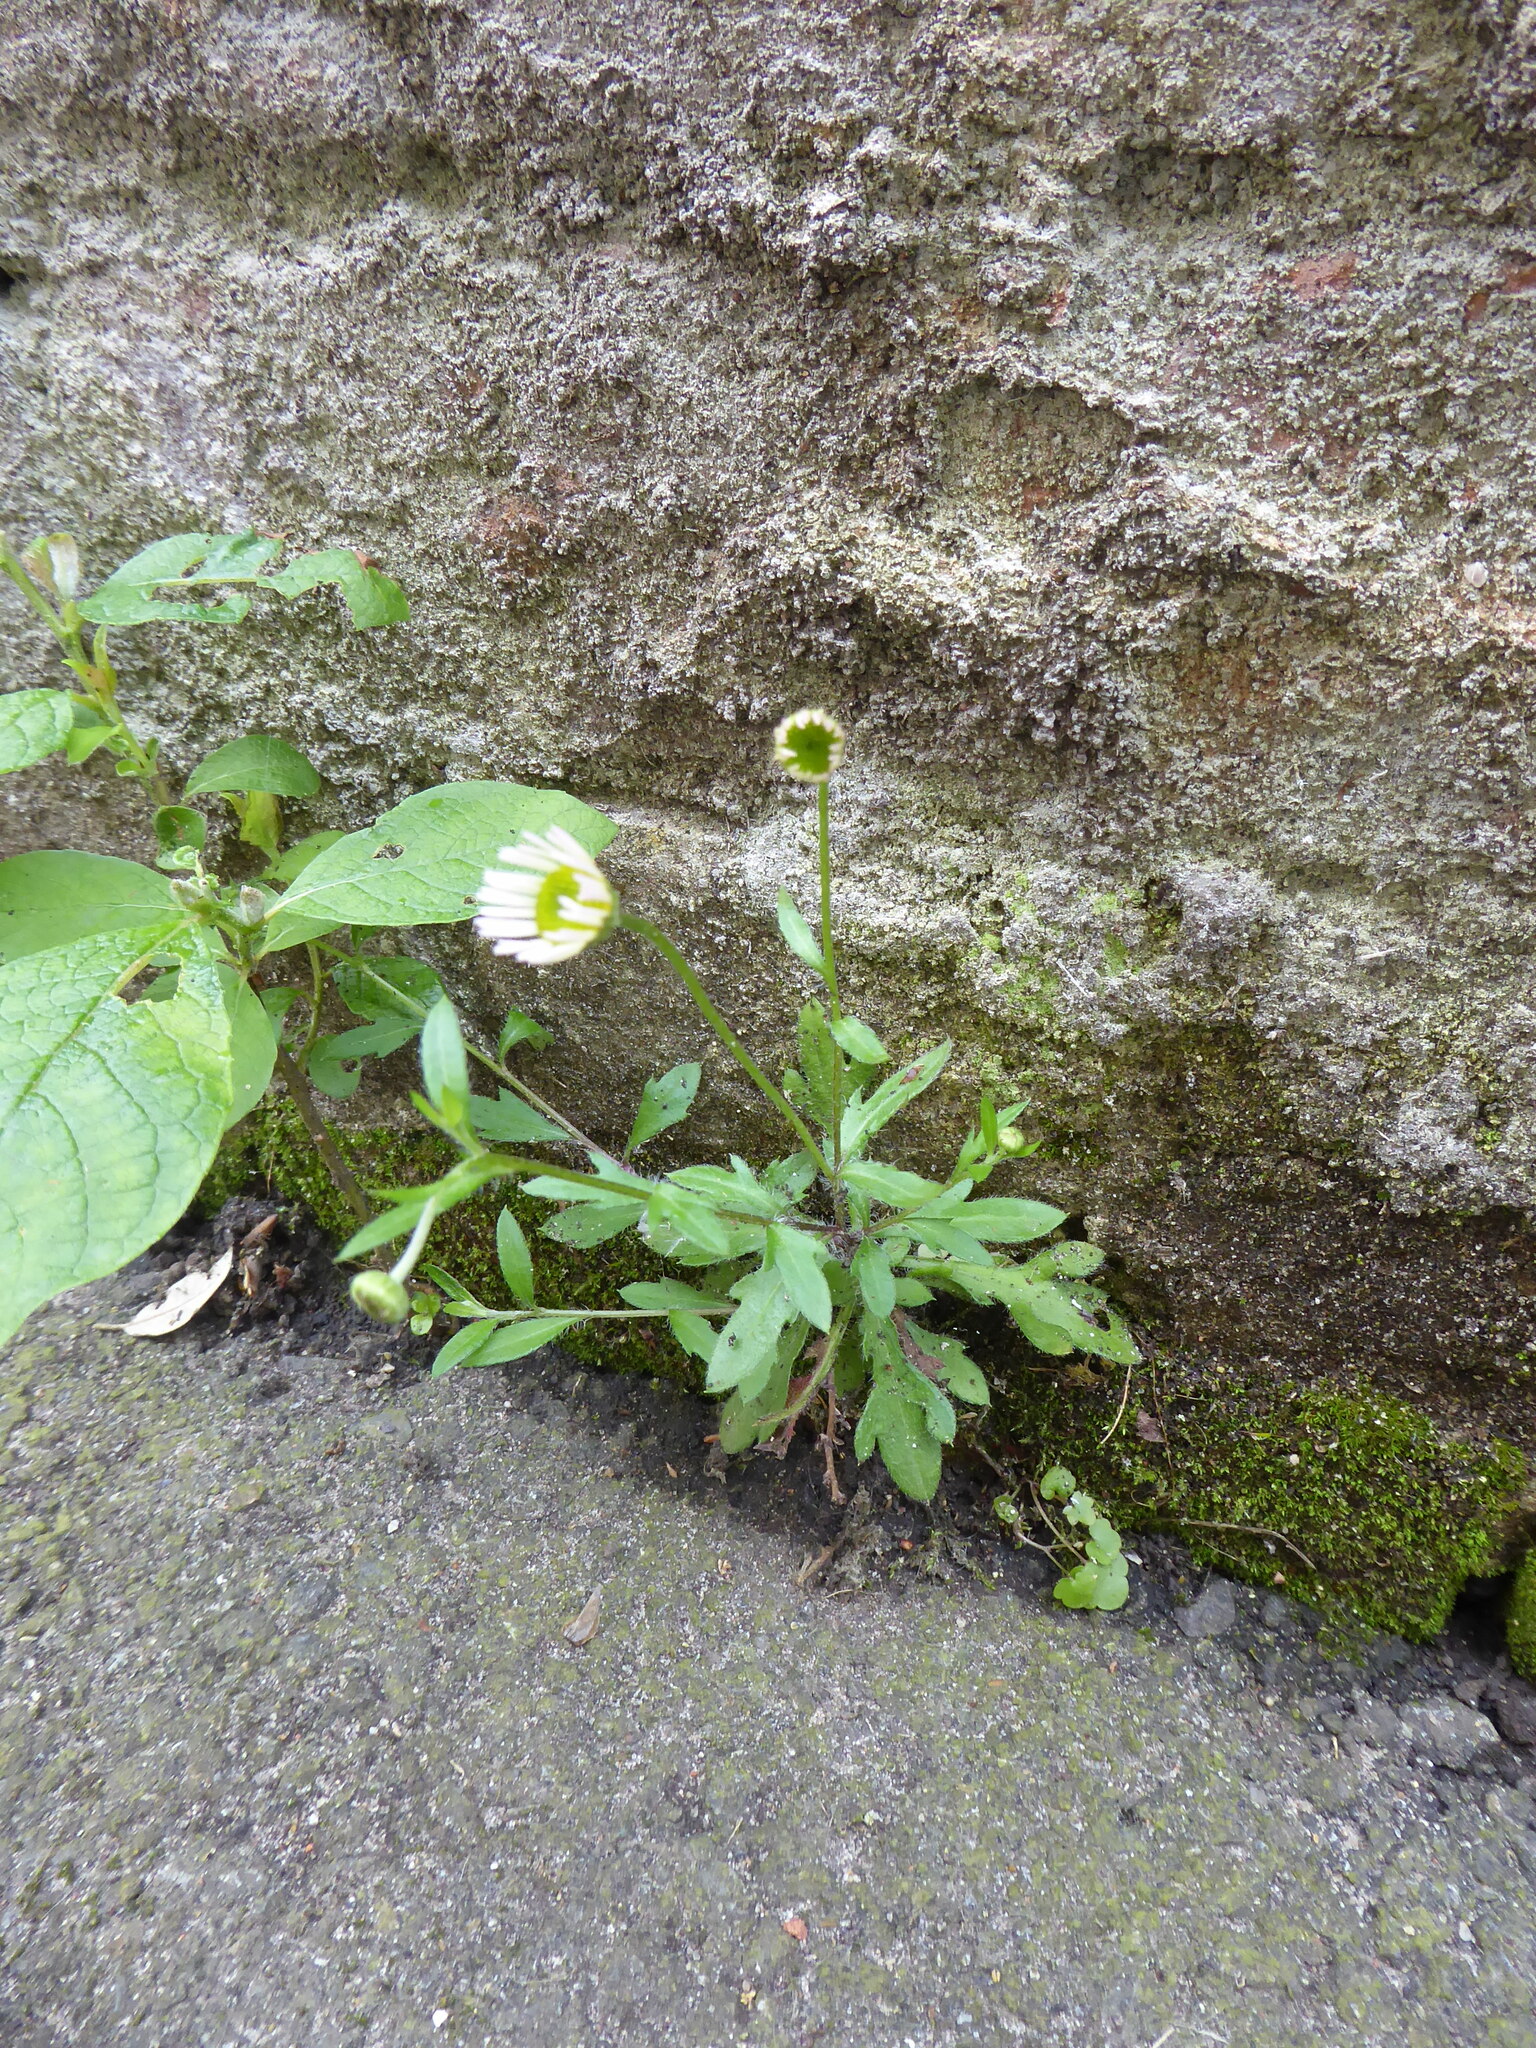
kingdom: Plantae
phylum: Tracheophyta
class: Magnoliopsida
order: Asterales
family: Asteraceae
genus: Erigeron
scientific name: Erigeron karvinskianus
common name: Mexican fleabane
